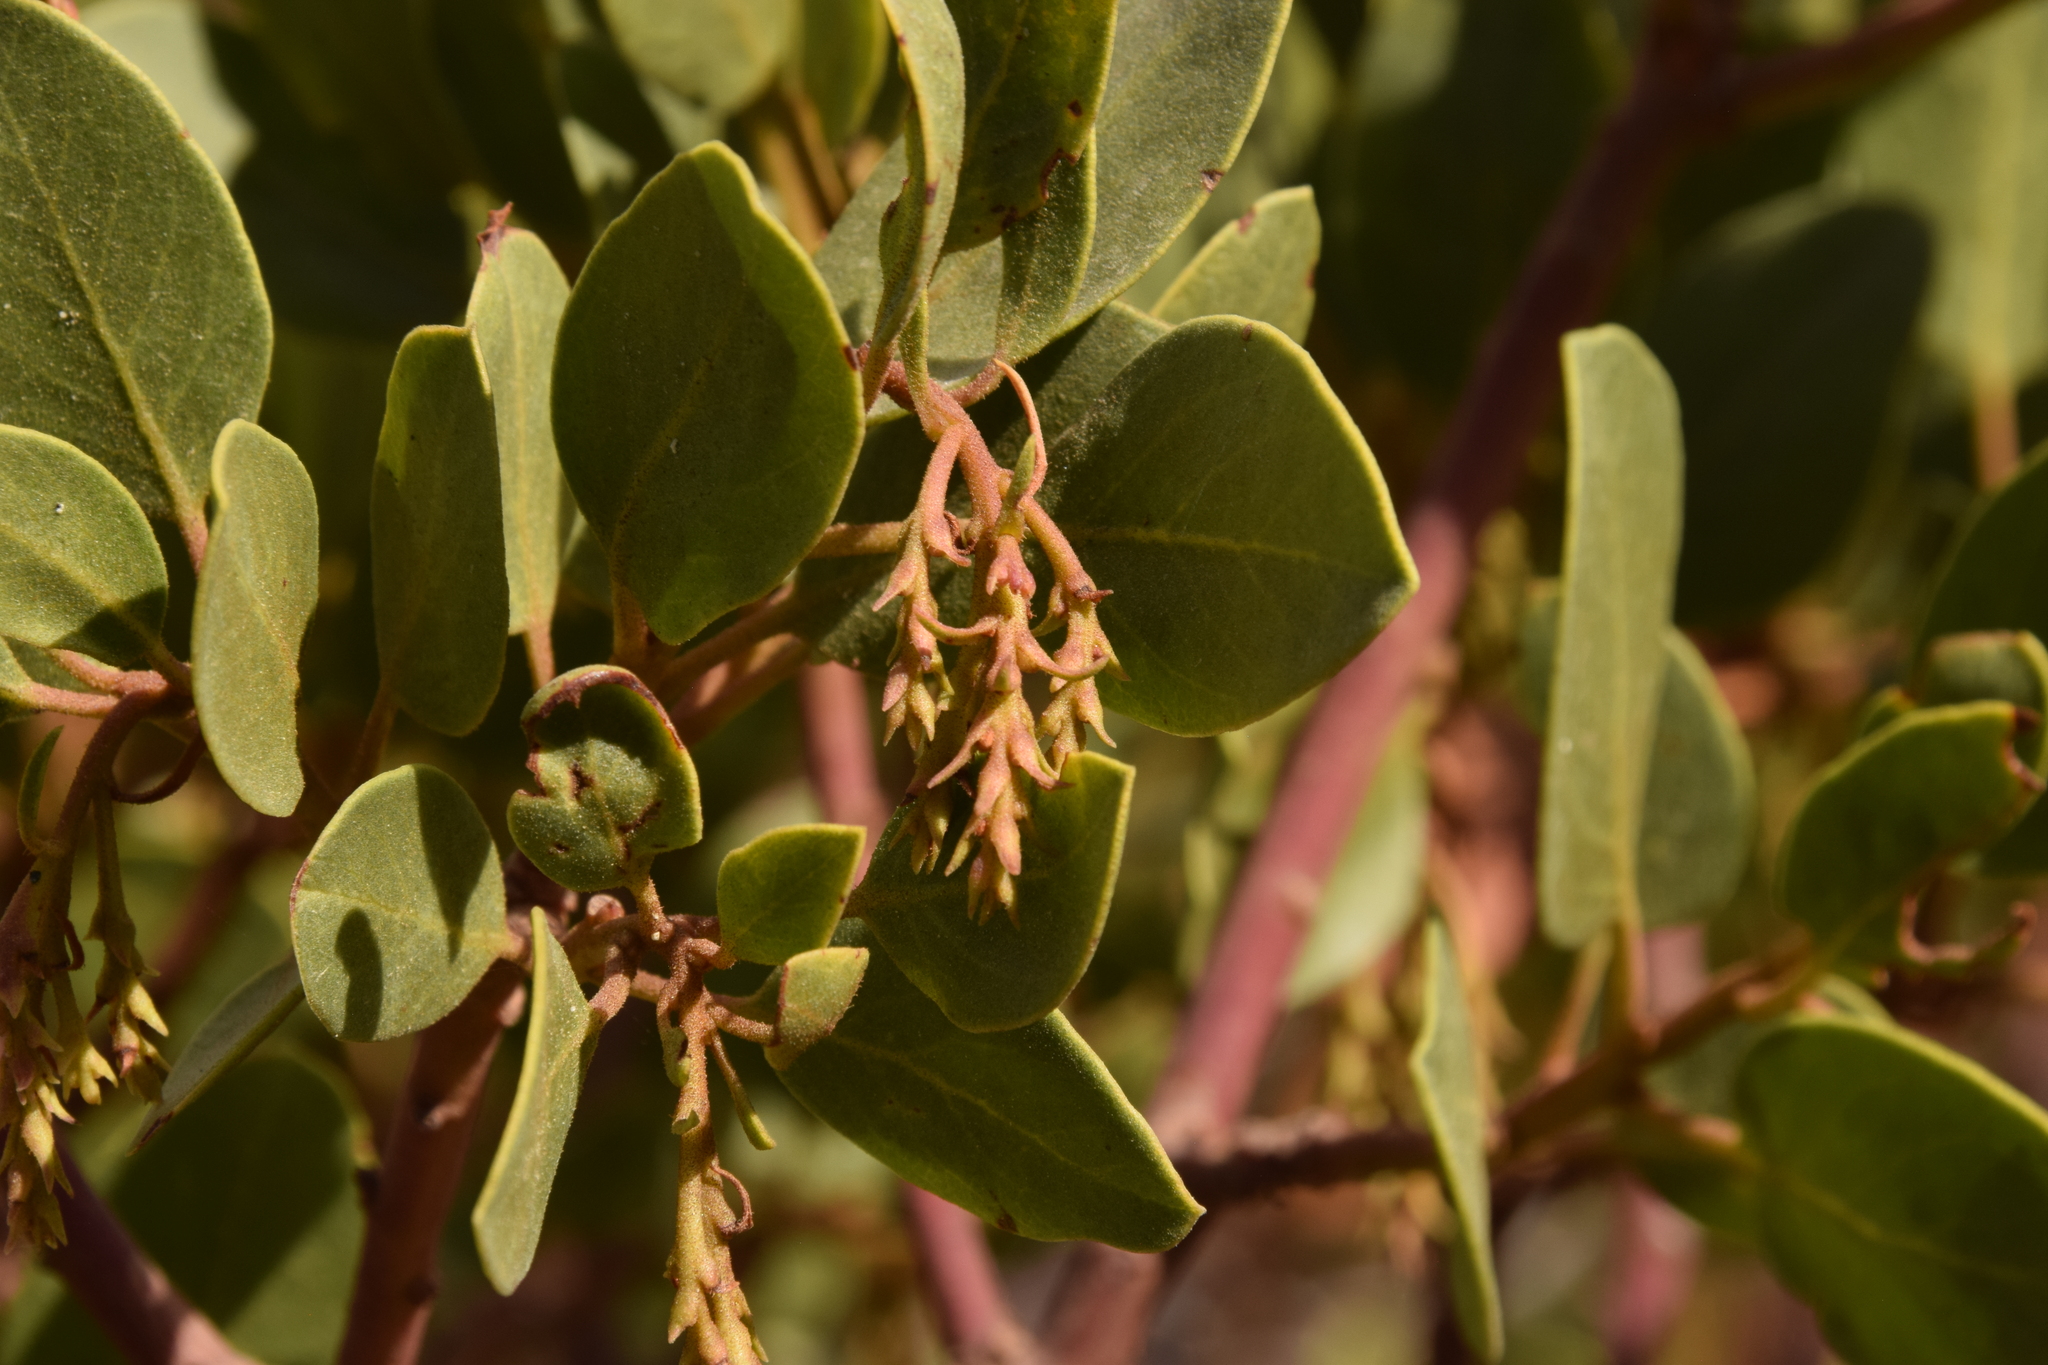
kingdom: Plantae
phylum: Tracheophyta
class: Magnoliopsida
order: Ericales
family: Ericaceae
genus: Arctostaphylos
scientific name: Arctostaphylos patula
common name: Green-leaf manzanita
